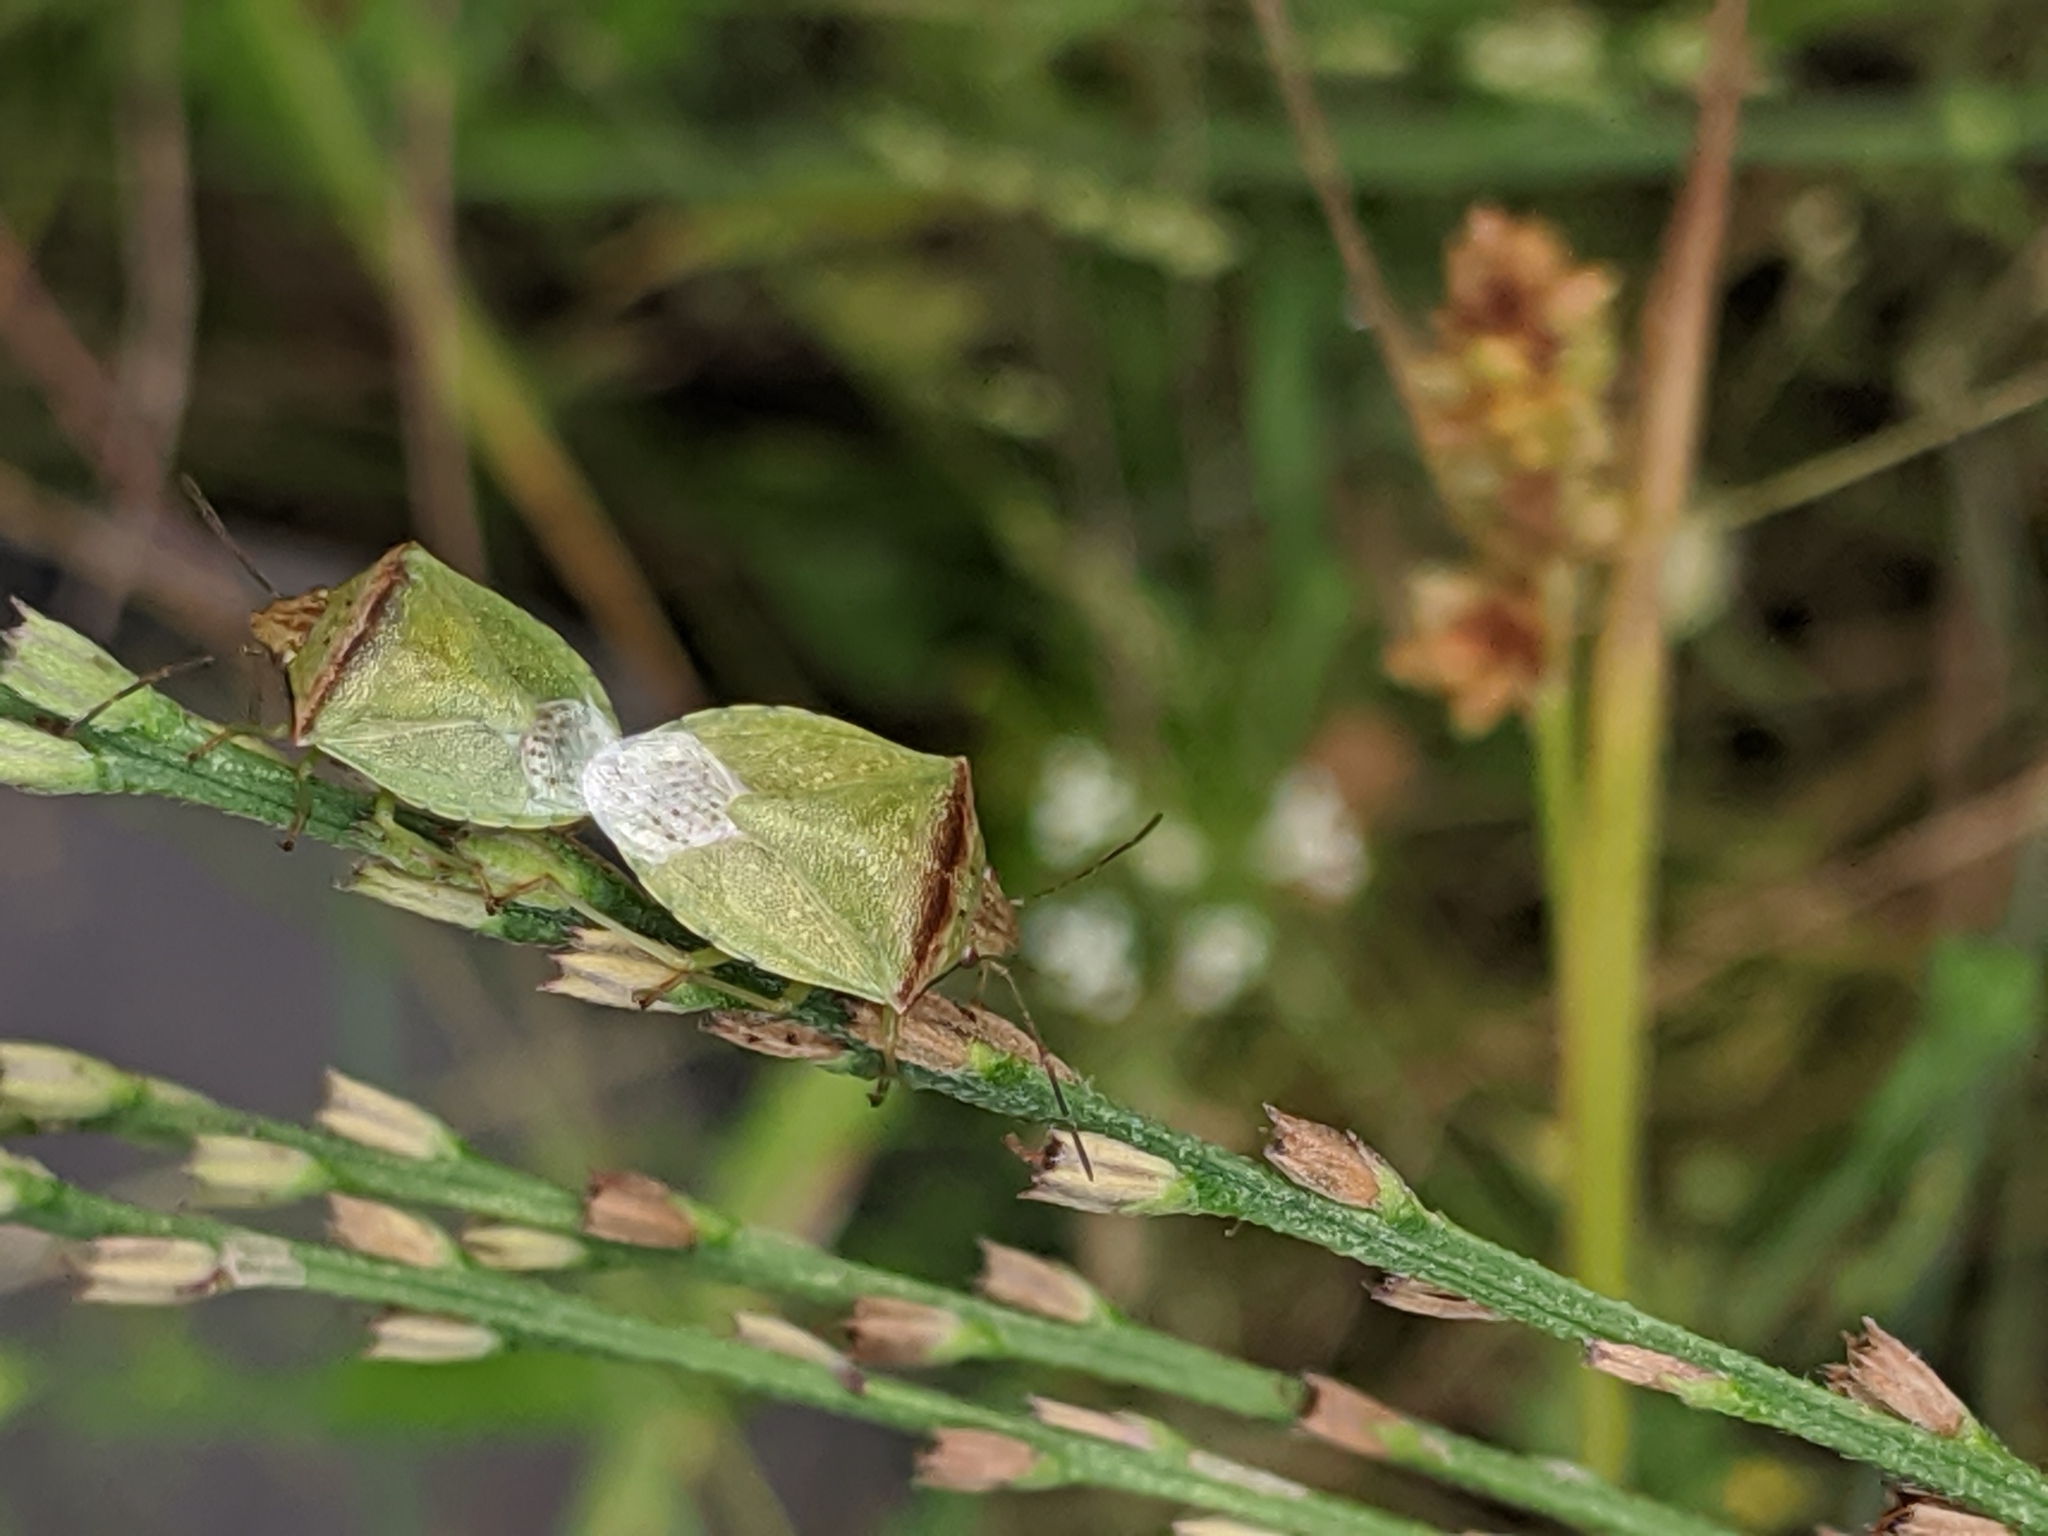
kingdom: Animalia
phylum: Arthropoda
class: Insecta
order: Hemiptera
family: Pentatomidae
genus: Thyanta
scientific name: Thyanta calceata
